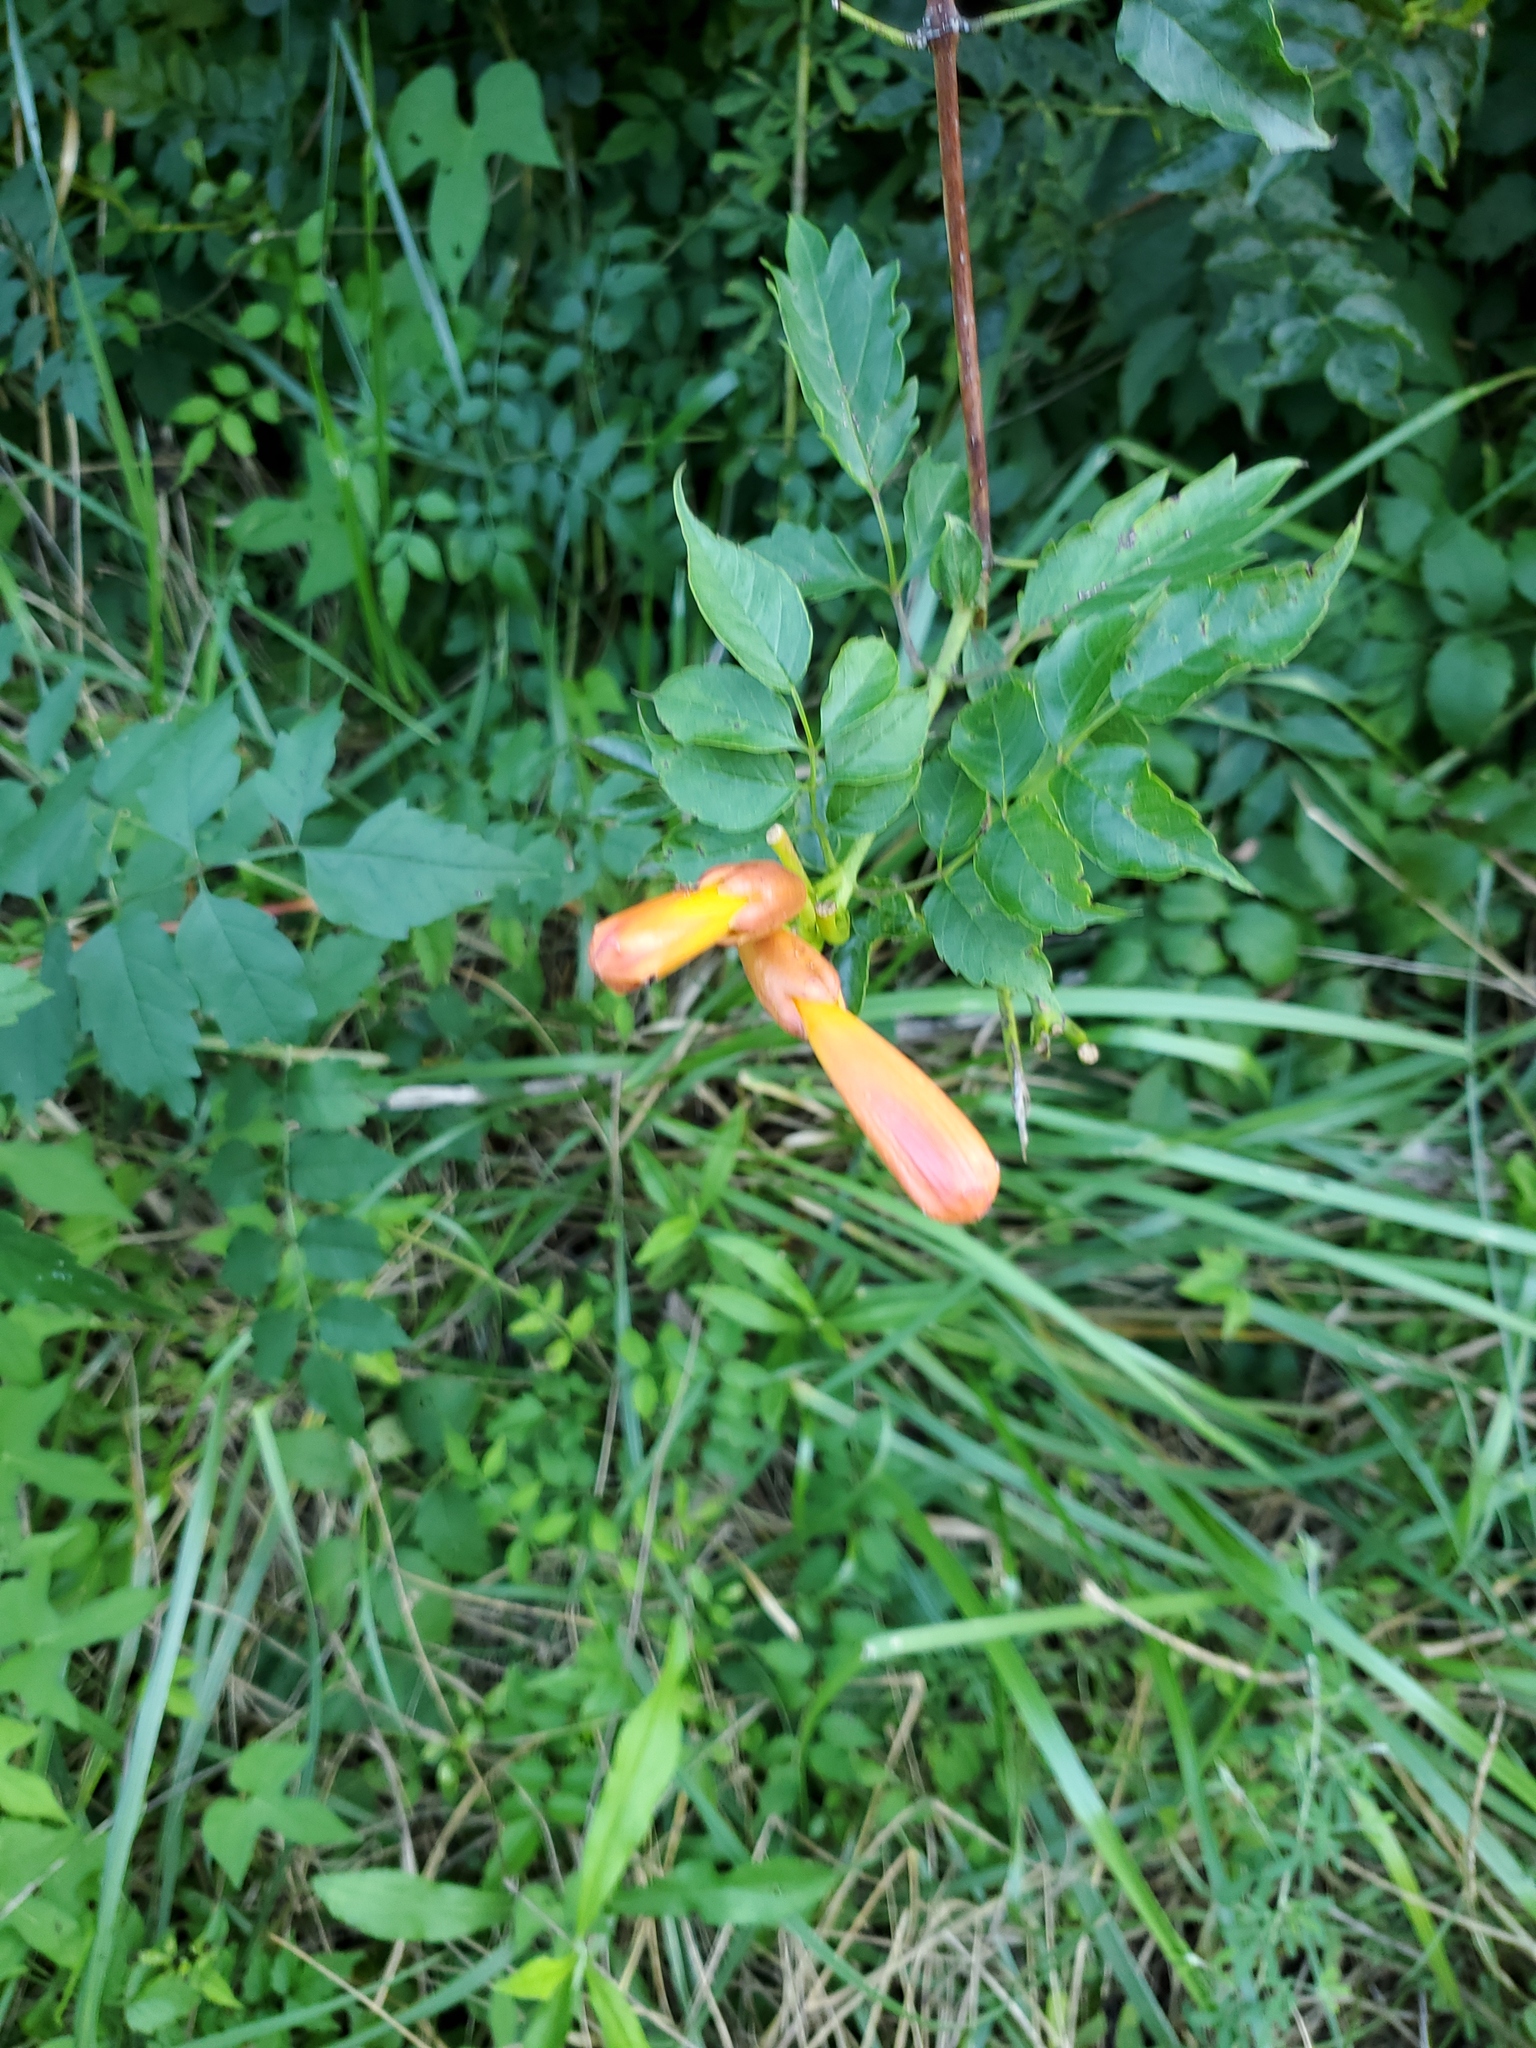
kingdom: Plantae
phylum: Tracheophyta
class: Magnoliopsida
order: Lamiales
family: Bignoniaceae
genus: Campsis
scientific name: Campsis radicans
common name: Trumpet-creeper
